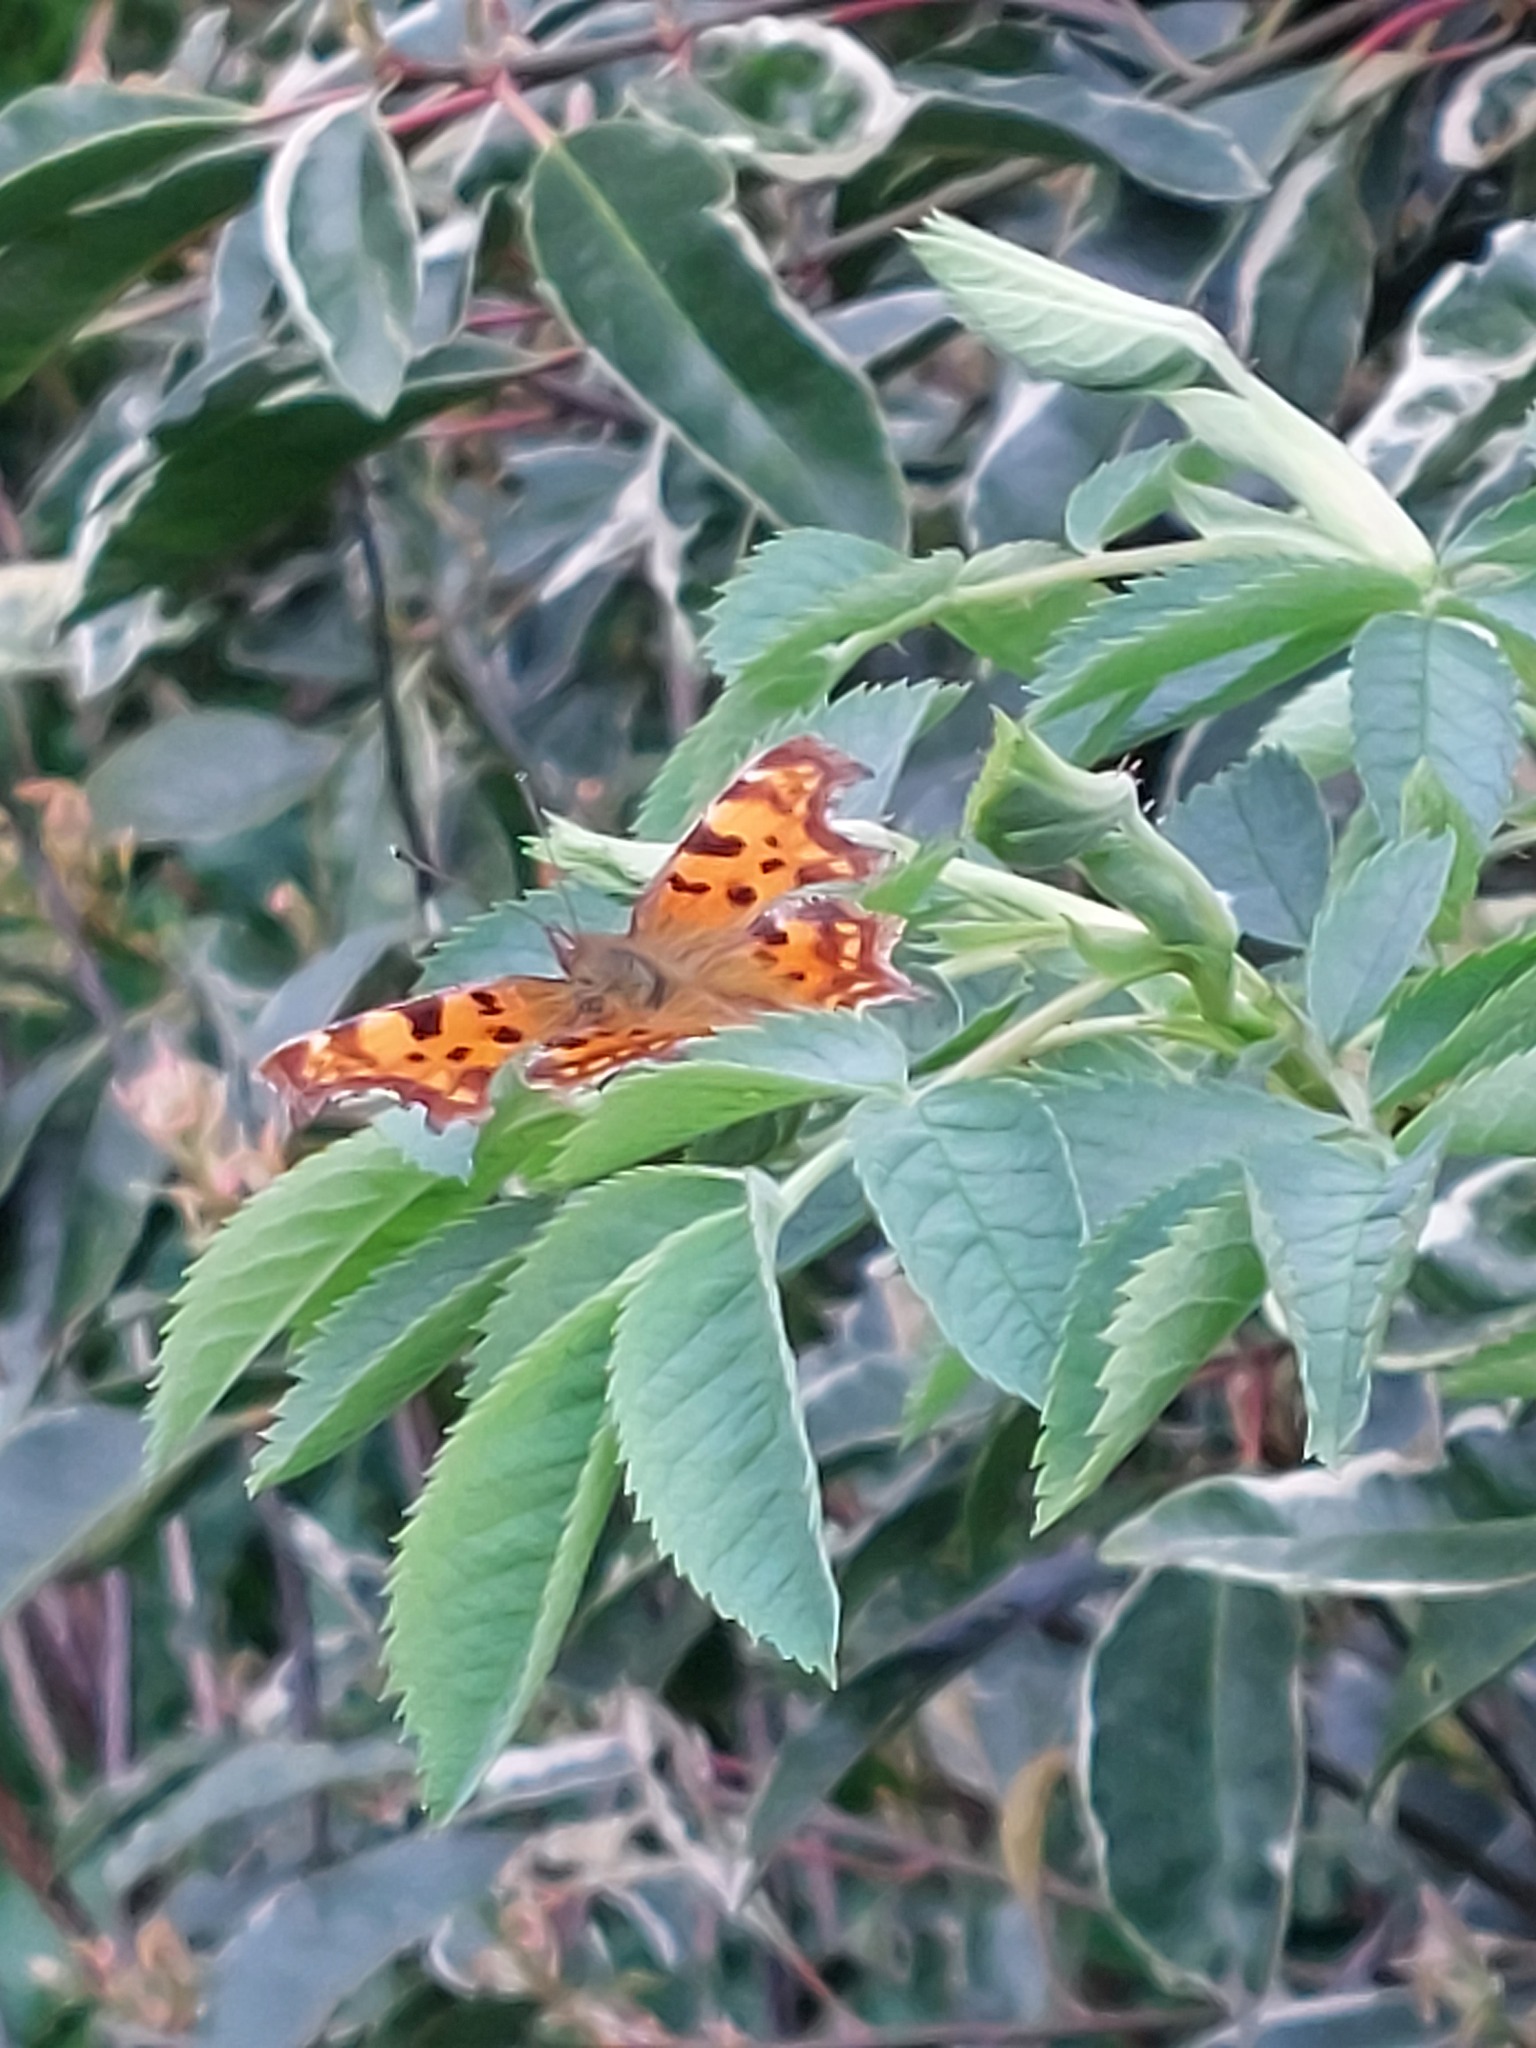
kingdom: Animalia
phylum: Arthropoda
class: Insecta
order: Lepidoptera
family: Nymphalidae
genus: Polygonia
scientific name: Polygonia c-album
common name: Comma
